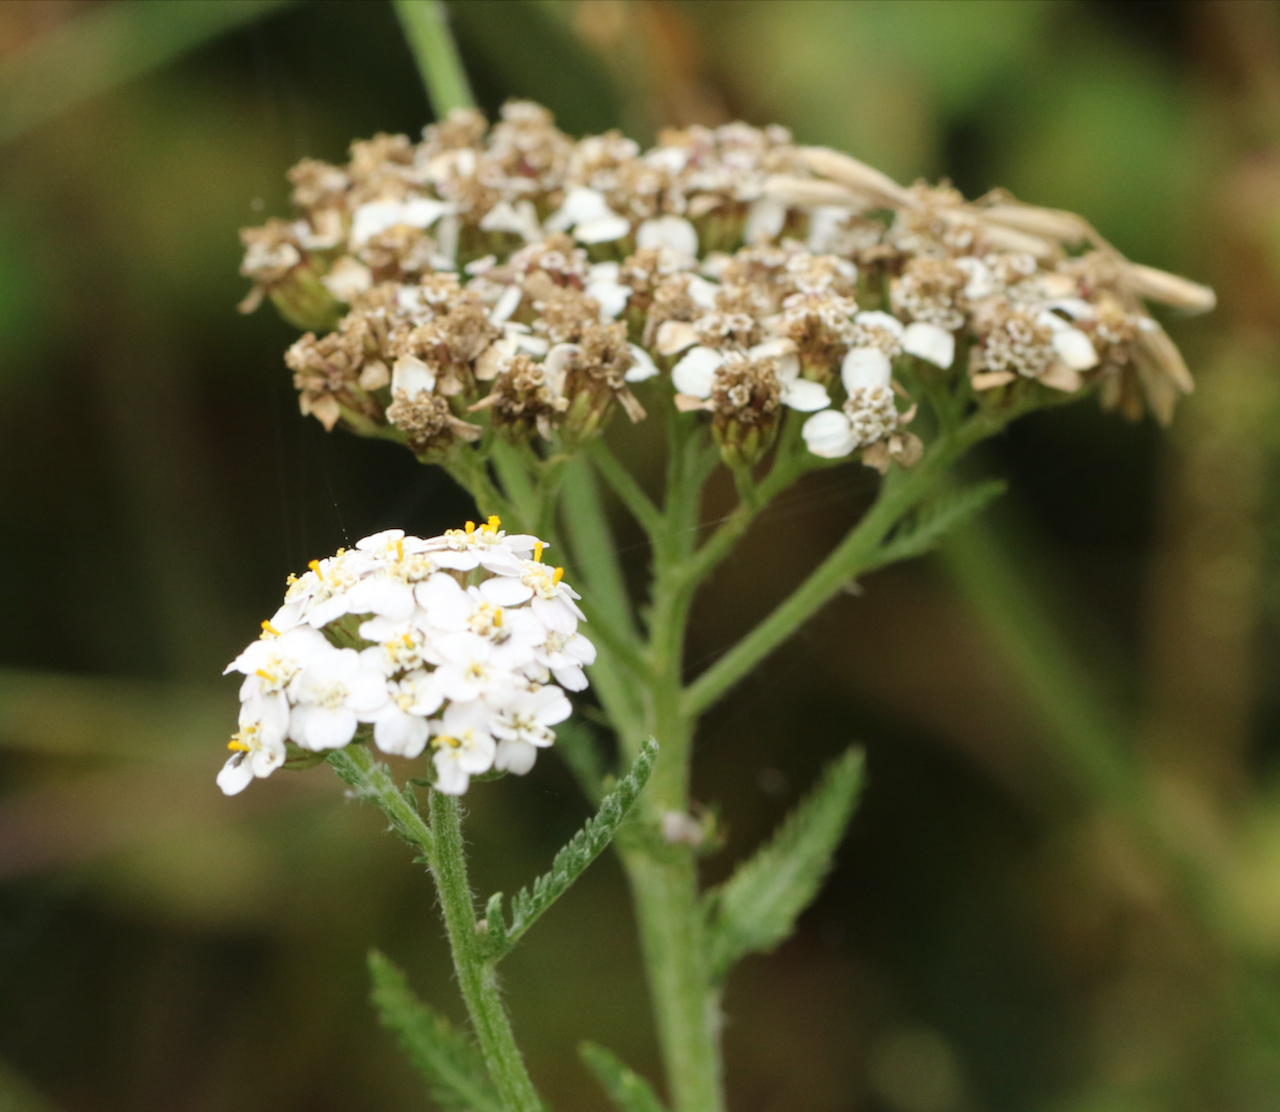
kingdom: Plantae
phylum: Tracheophyta
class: Magnoliopsida
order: Asterales
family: Asteraceae
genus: Achillea
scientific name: Achillea millefolium
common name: Yarrow
